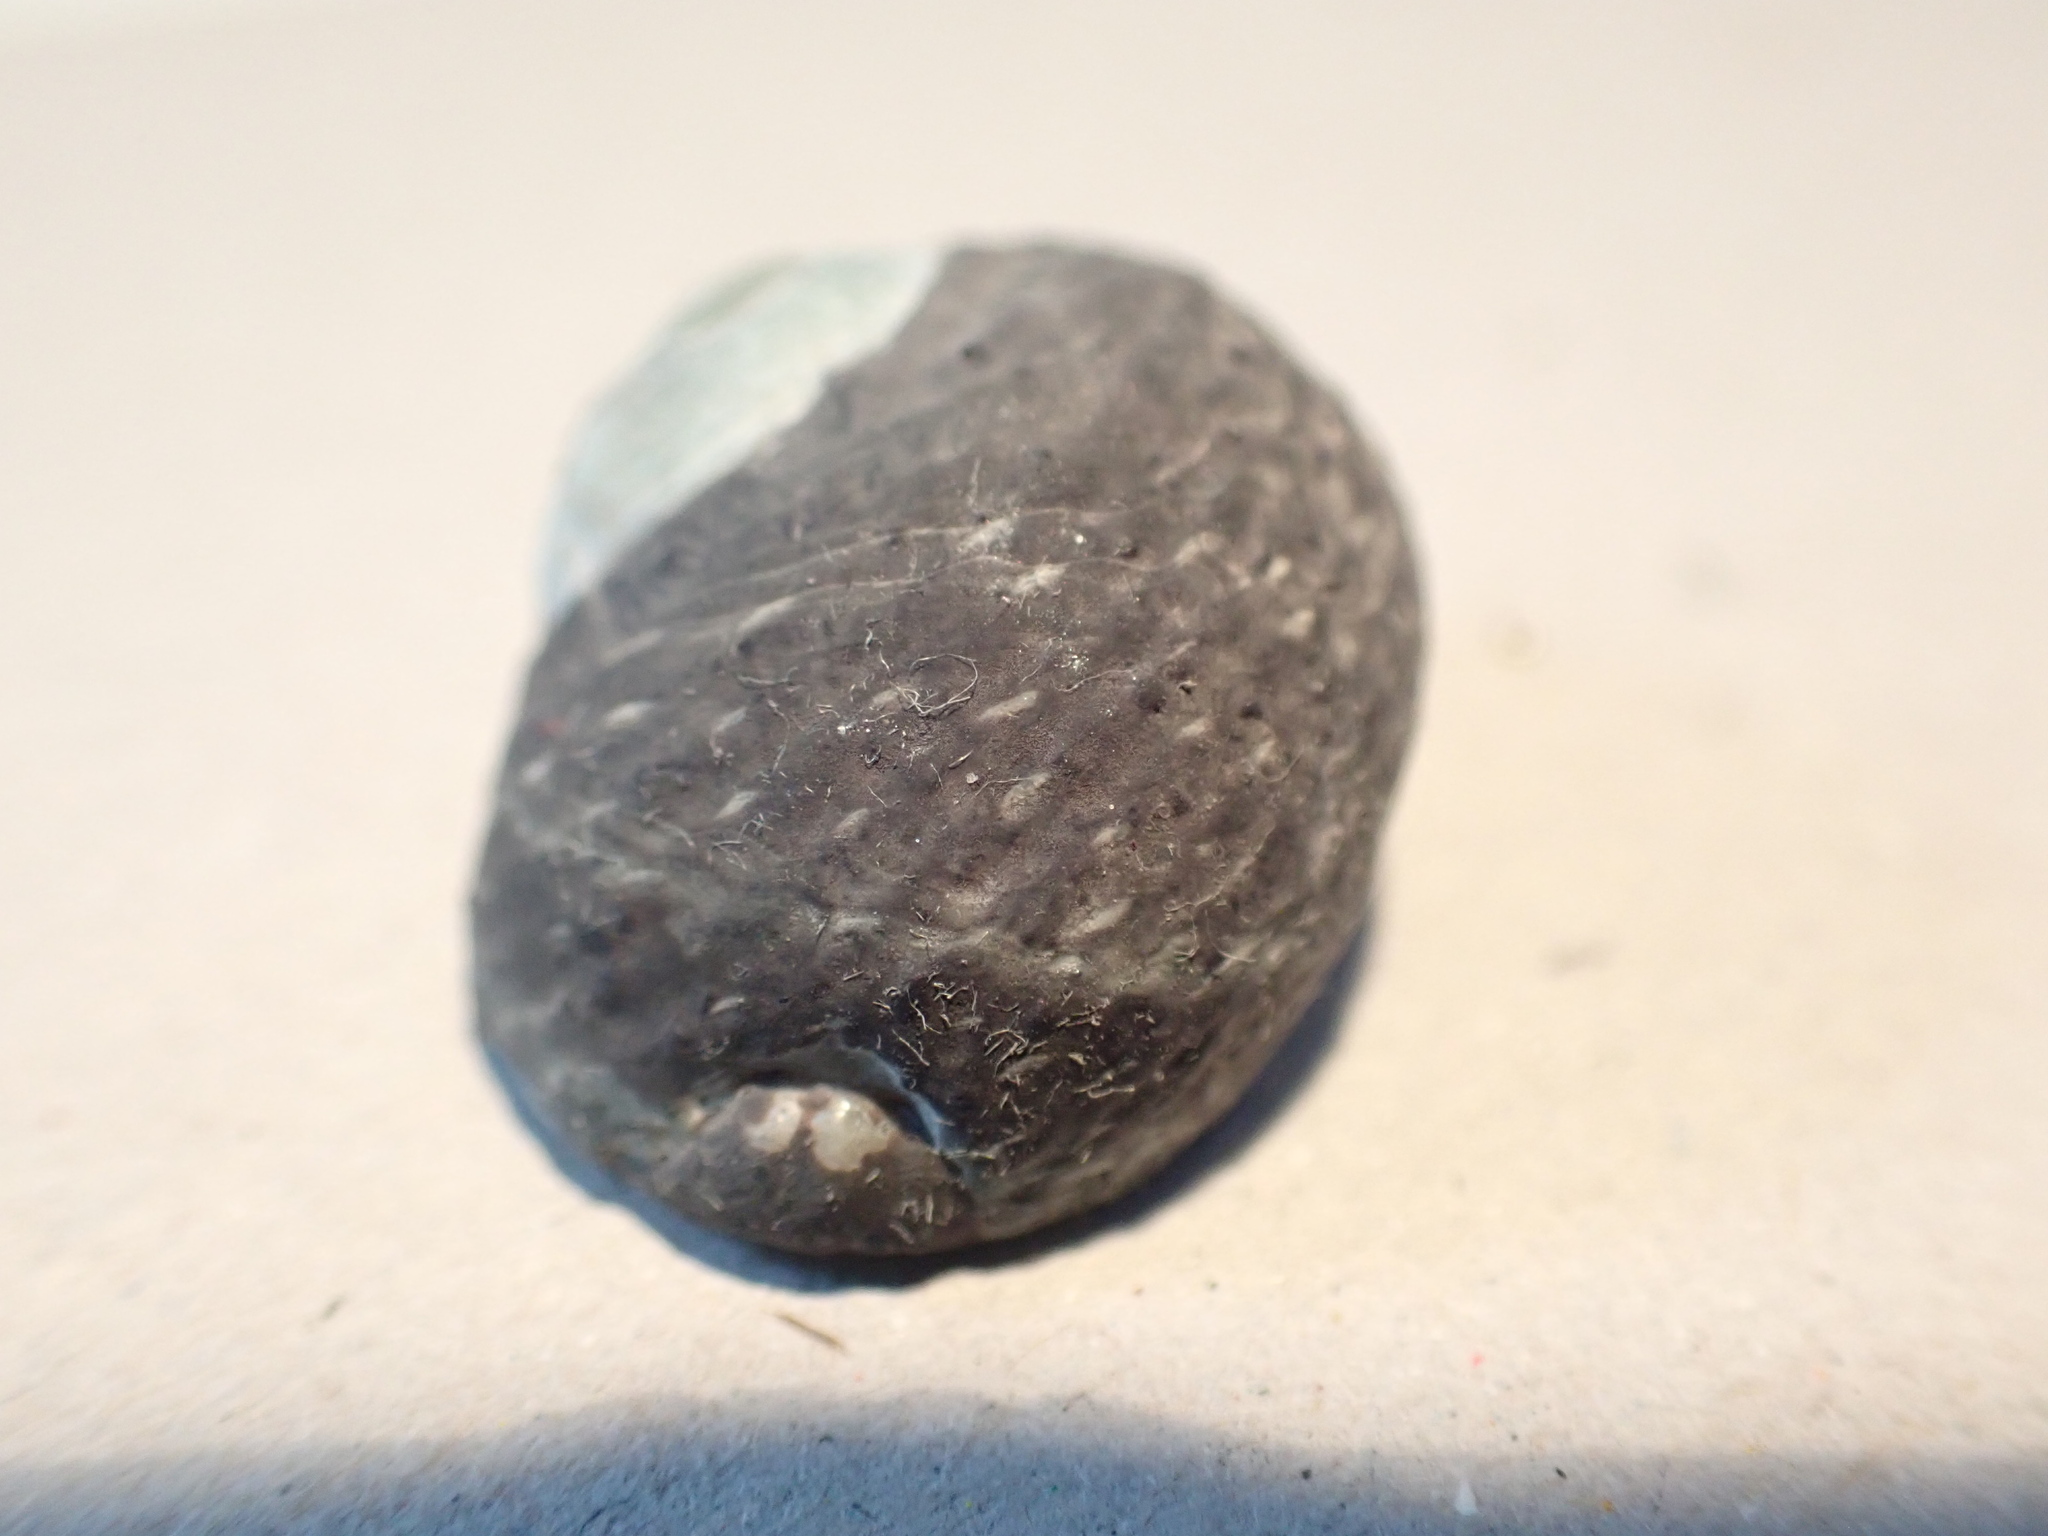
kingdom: Animalia
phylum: Mollusca
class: Gastropoda
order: Trochida
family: Trochidae
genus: Diloma
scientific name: Diloma zelandicum
